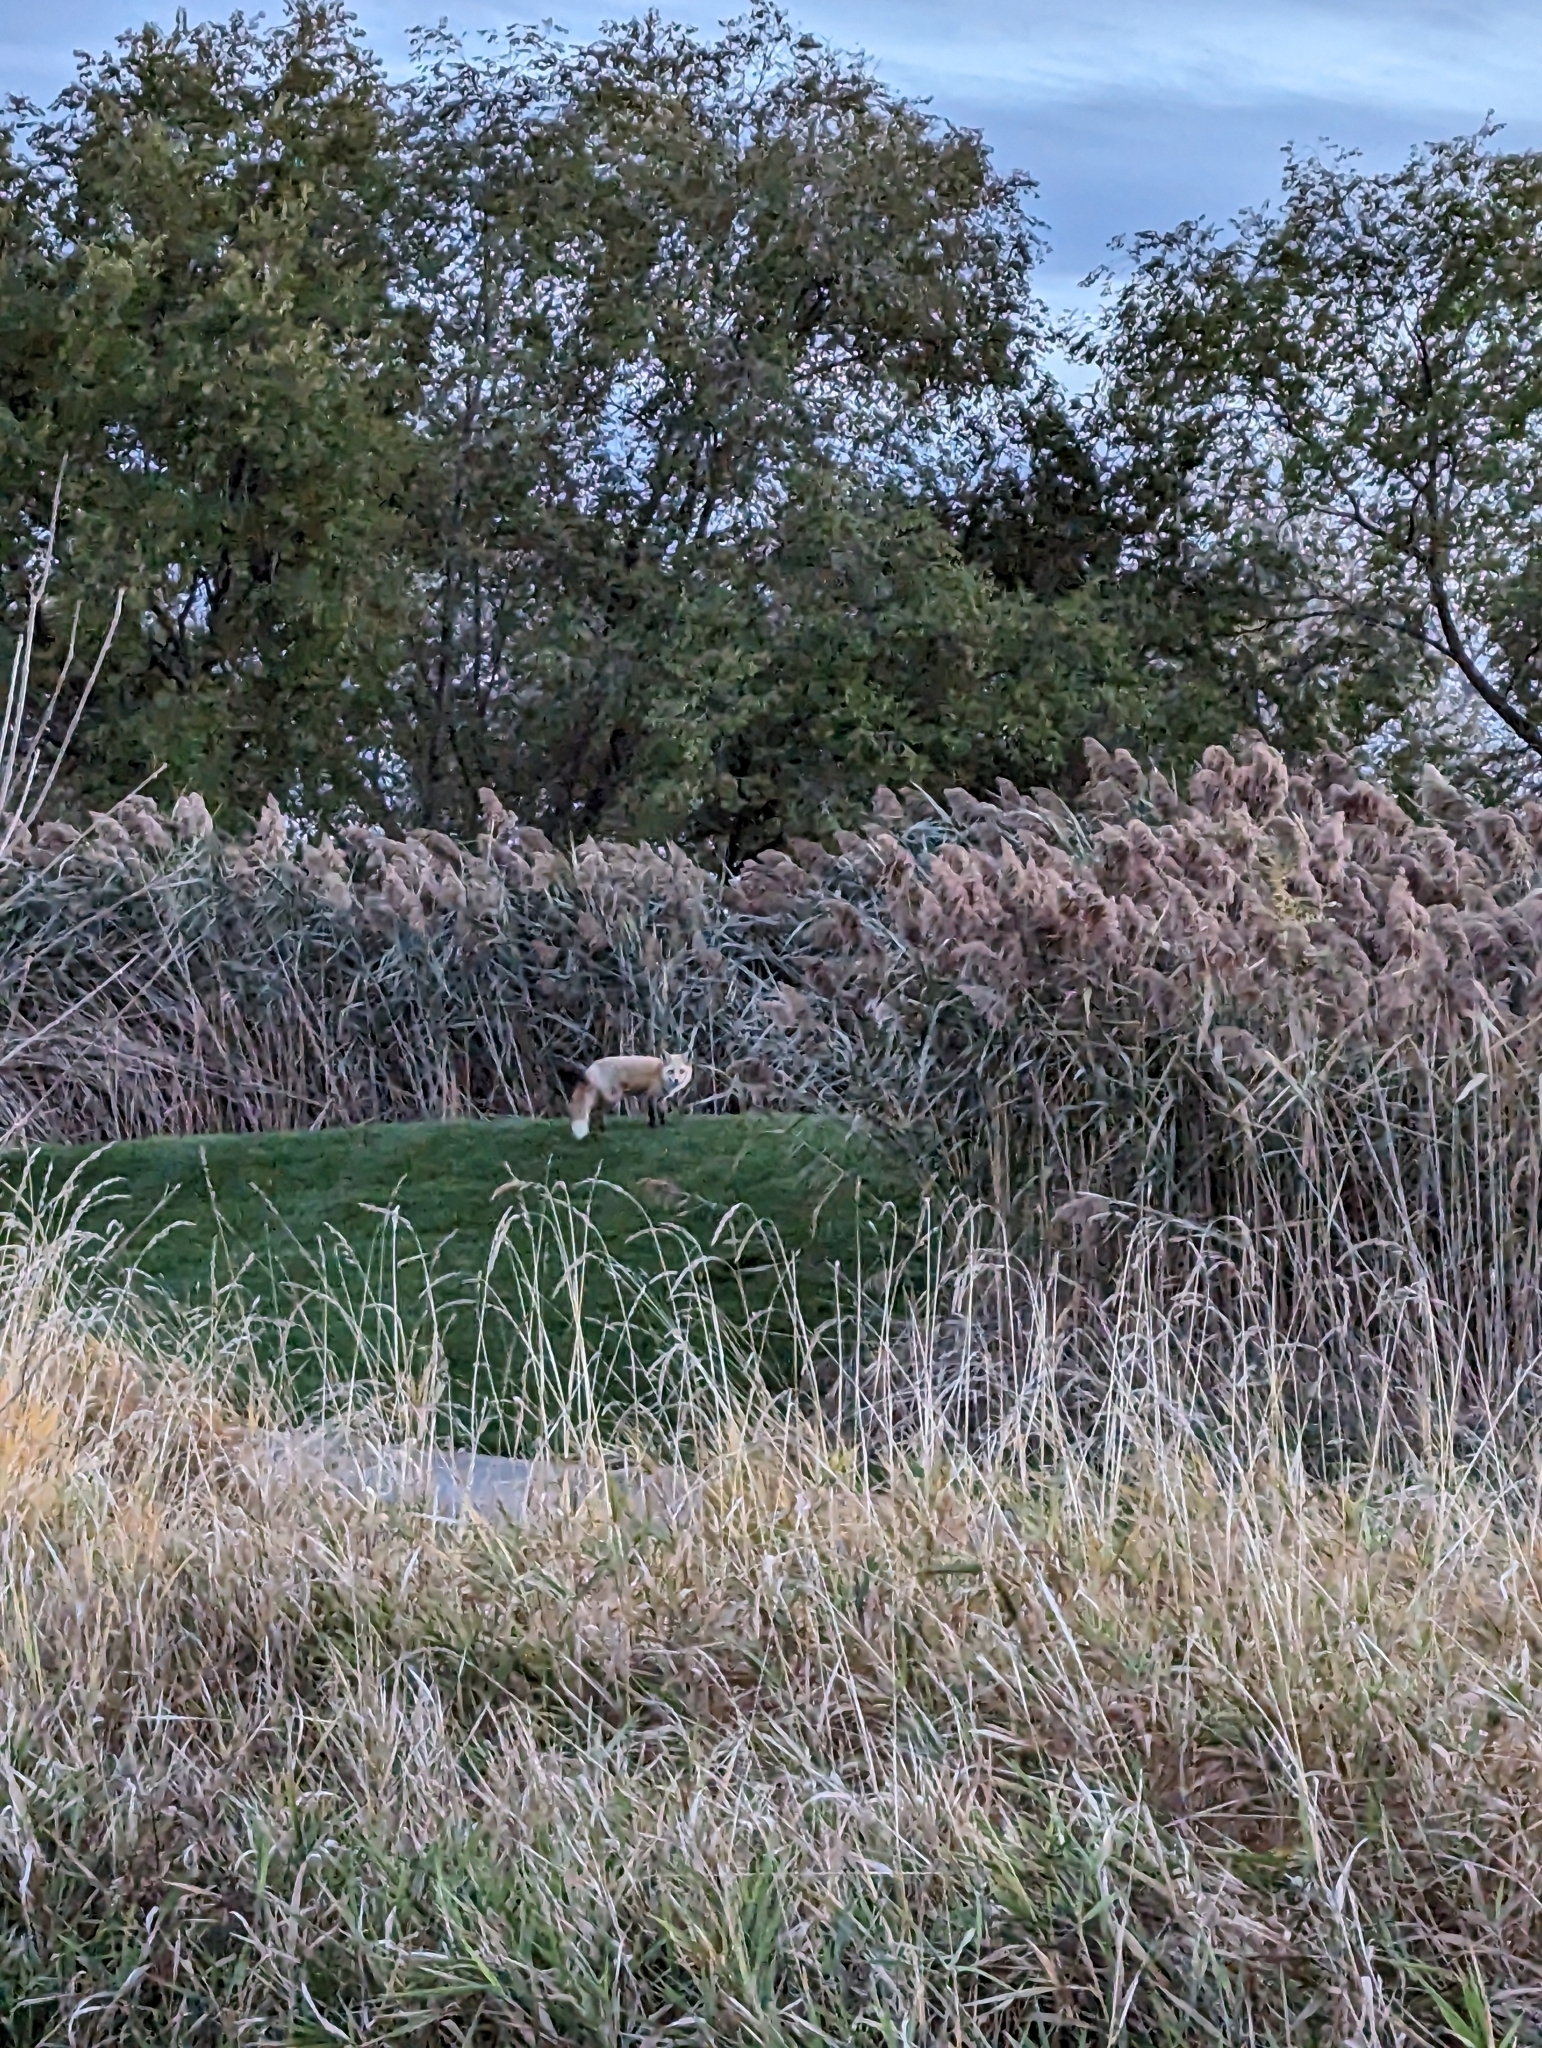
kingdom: Animalia
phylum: Chordata
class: Mammalia
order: Carnivora
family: Canidae
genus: Vulpes
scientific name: Vulpes vulpes
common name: Red fox
